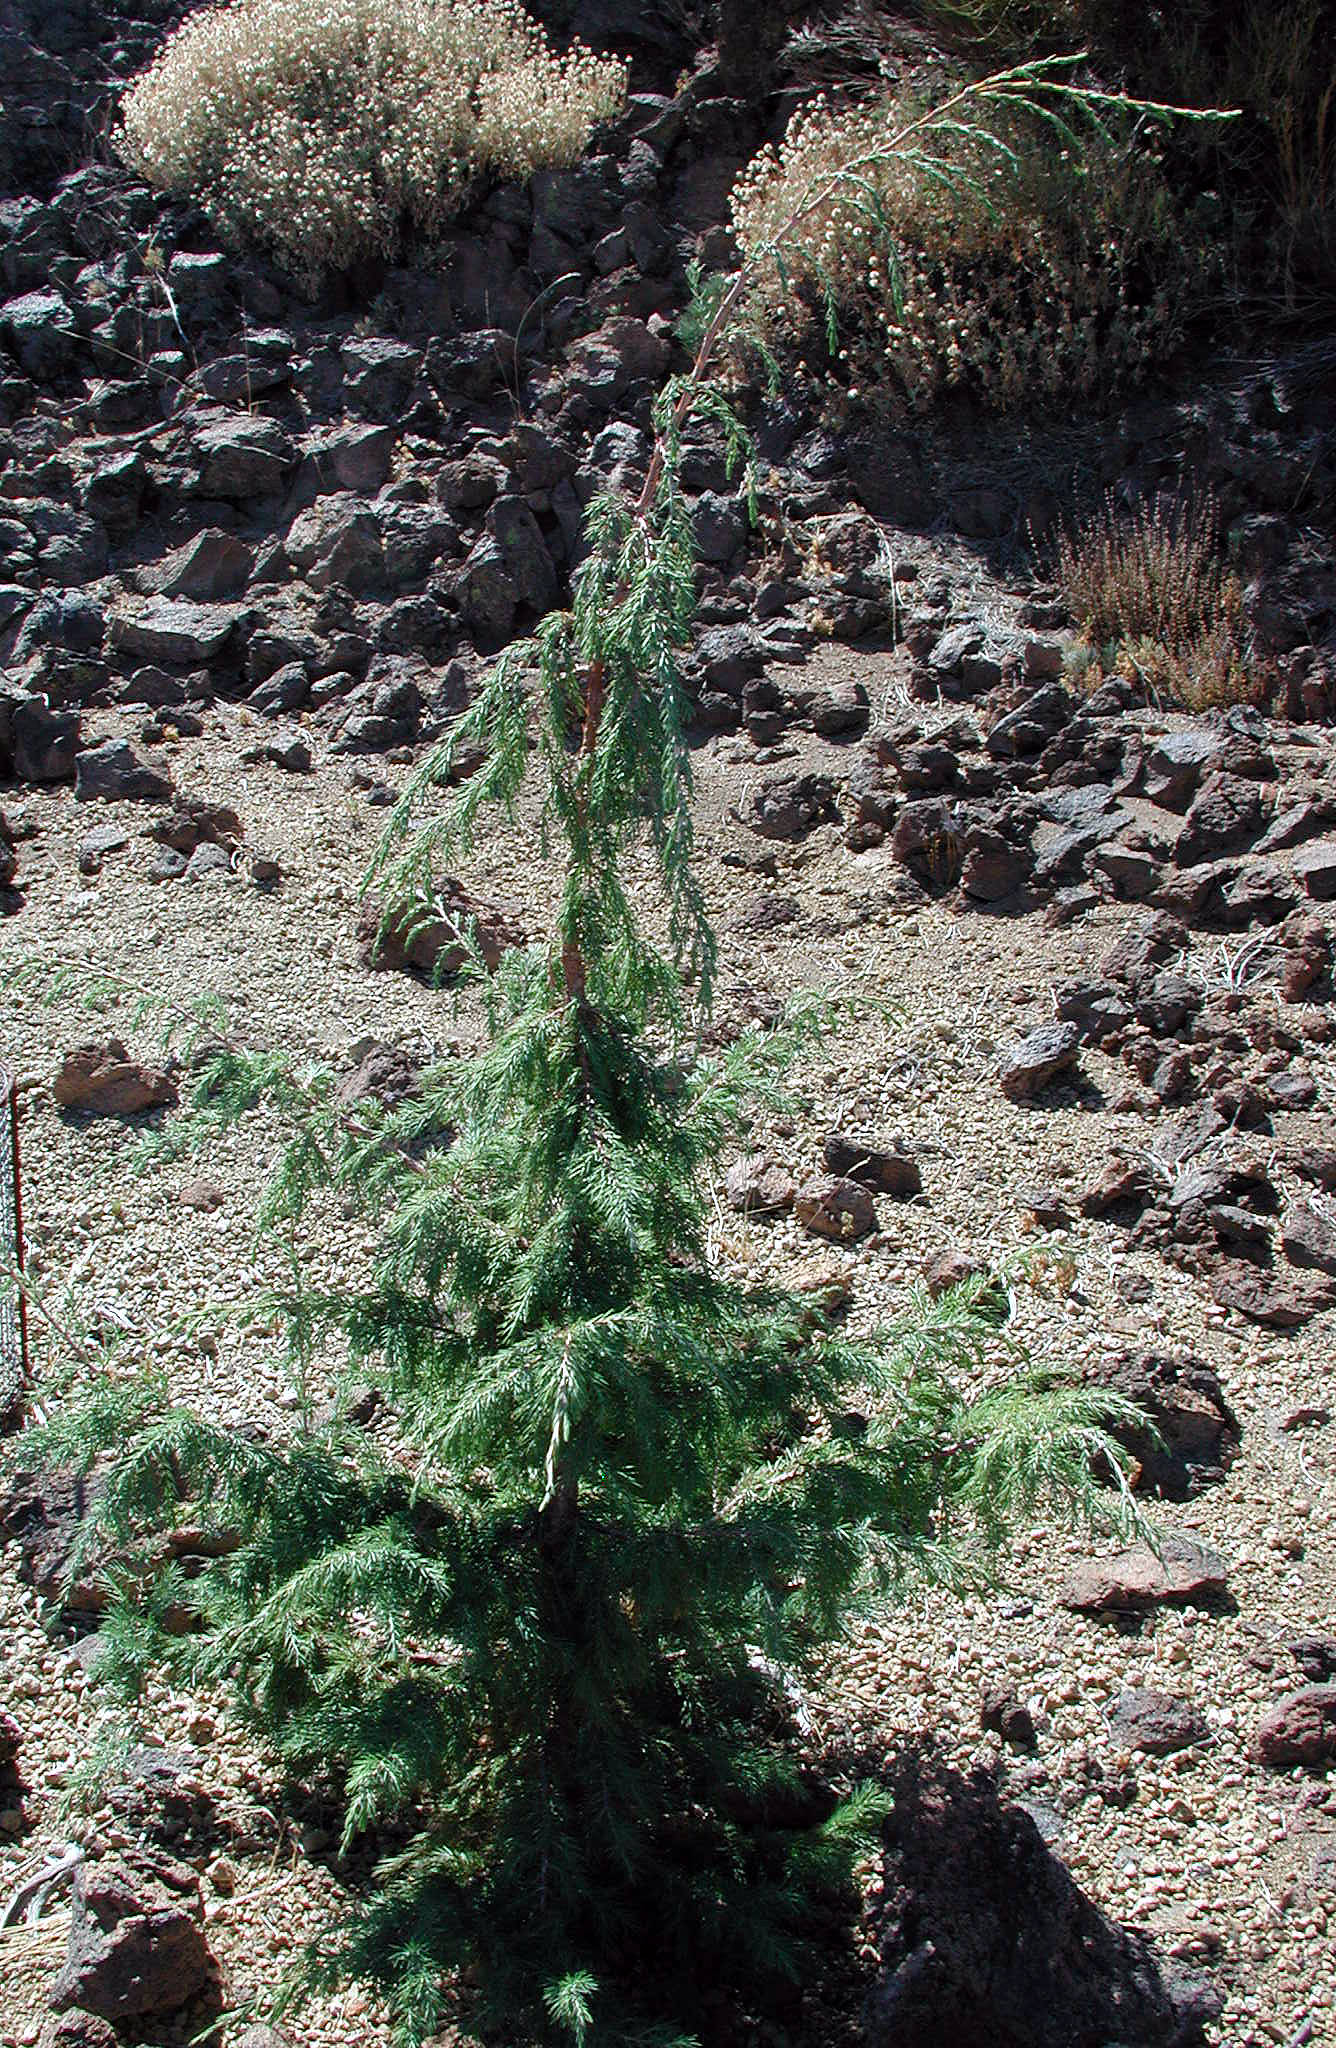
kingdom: Plantae
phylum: Tracheophyta
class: Pinopsida
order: Pinales
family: Cupressaceae
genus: Juniperus
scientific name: Juniperus cedrus
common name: Canary islands juniper
